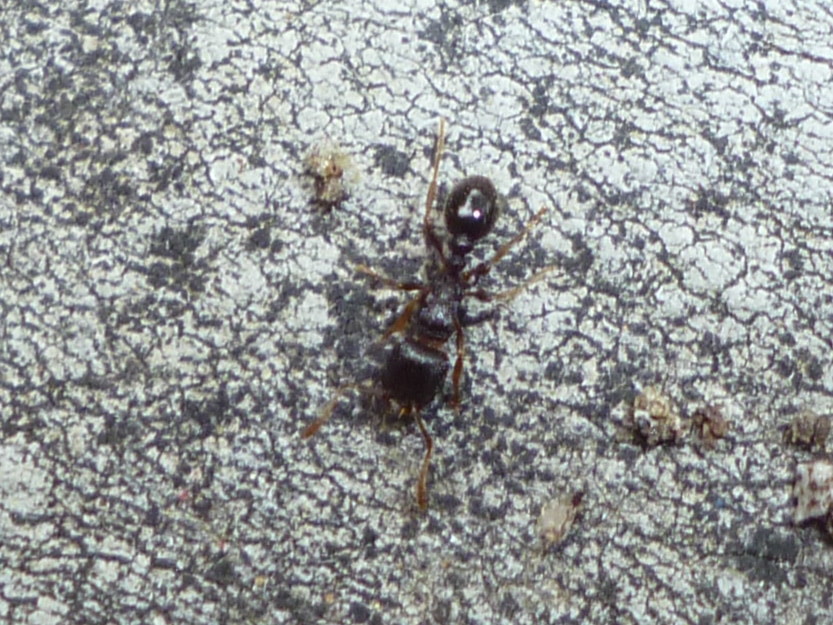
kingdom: Animalia
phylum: Arthropoda
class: Insecta
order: Hymenoptera
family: Formicidae
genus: Tetramorium
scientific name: Tetramorium immigrans
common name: Pavement ant
